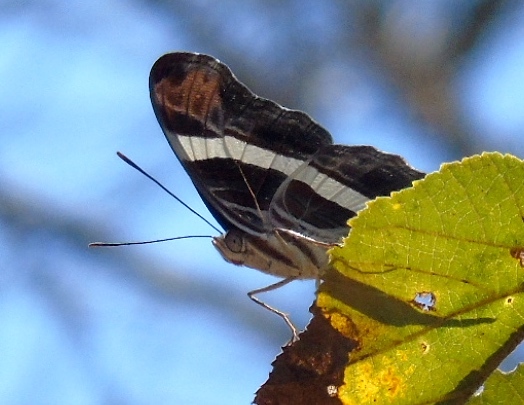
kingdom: Animalia
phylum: Arthropoda
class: Insecta
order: Lepidoptera
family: Nymphalidae
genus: Limenitis
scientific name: Limenitis fessonia
